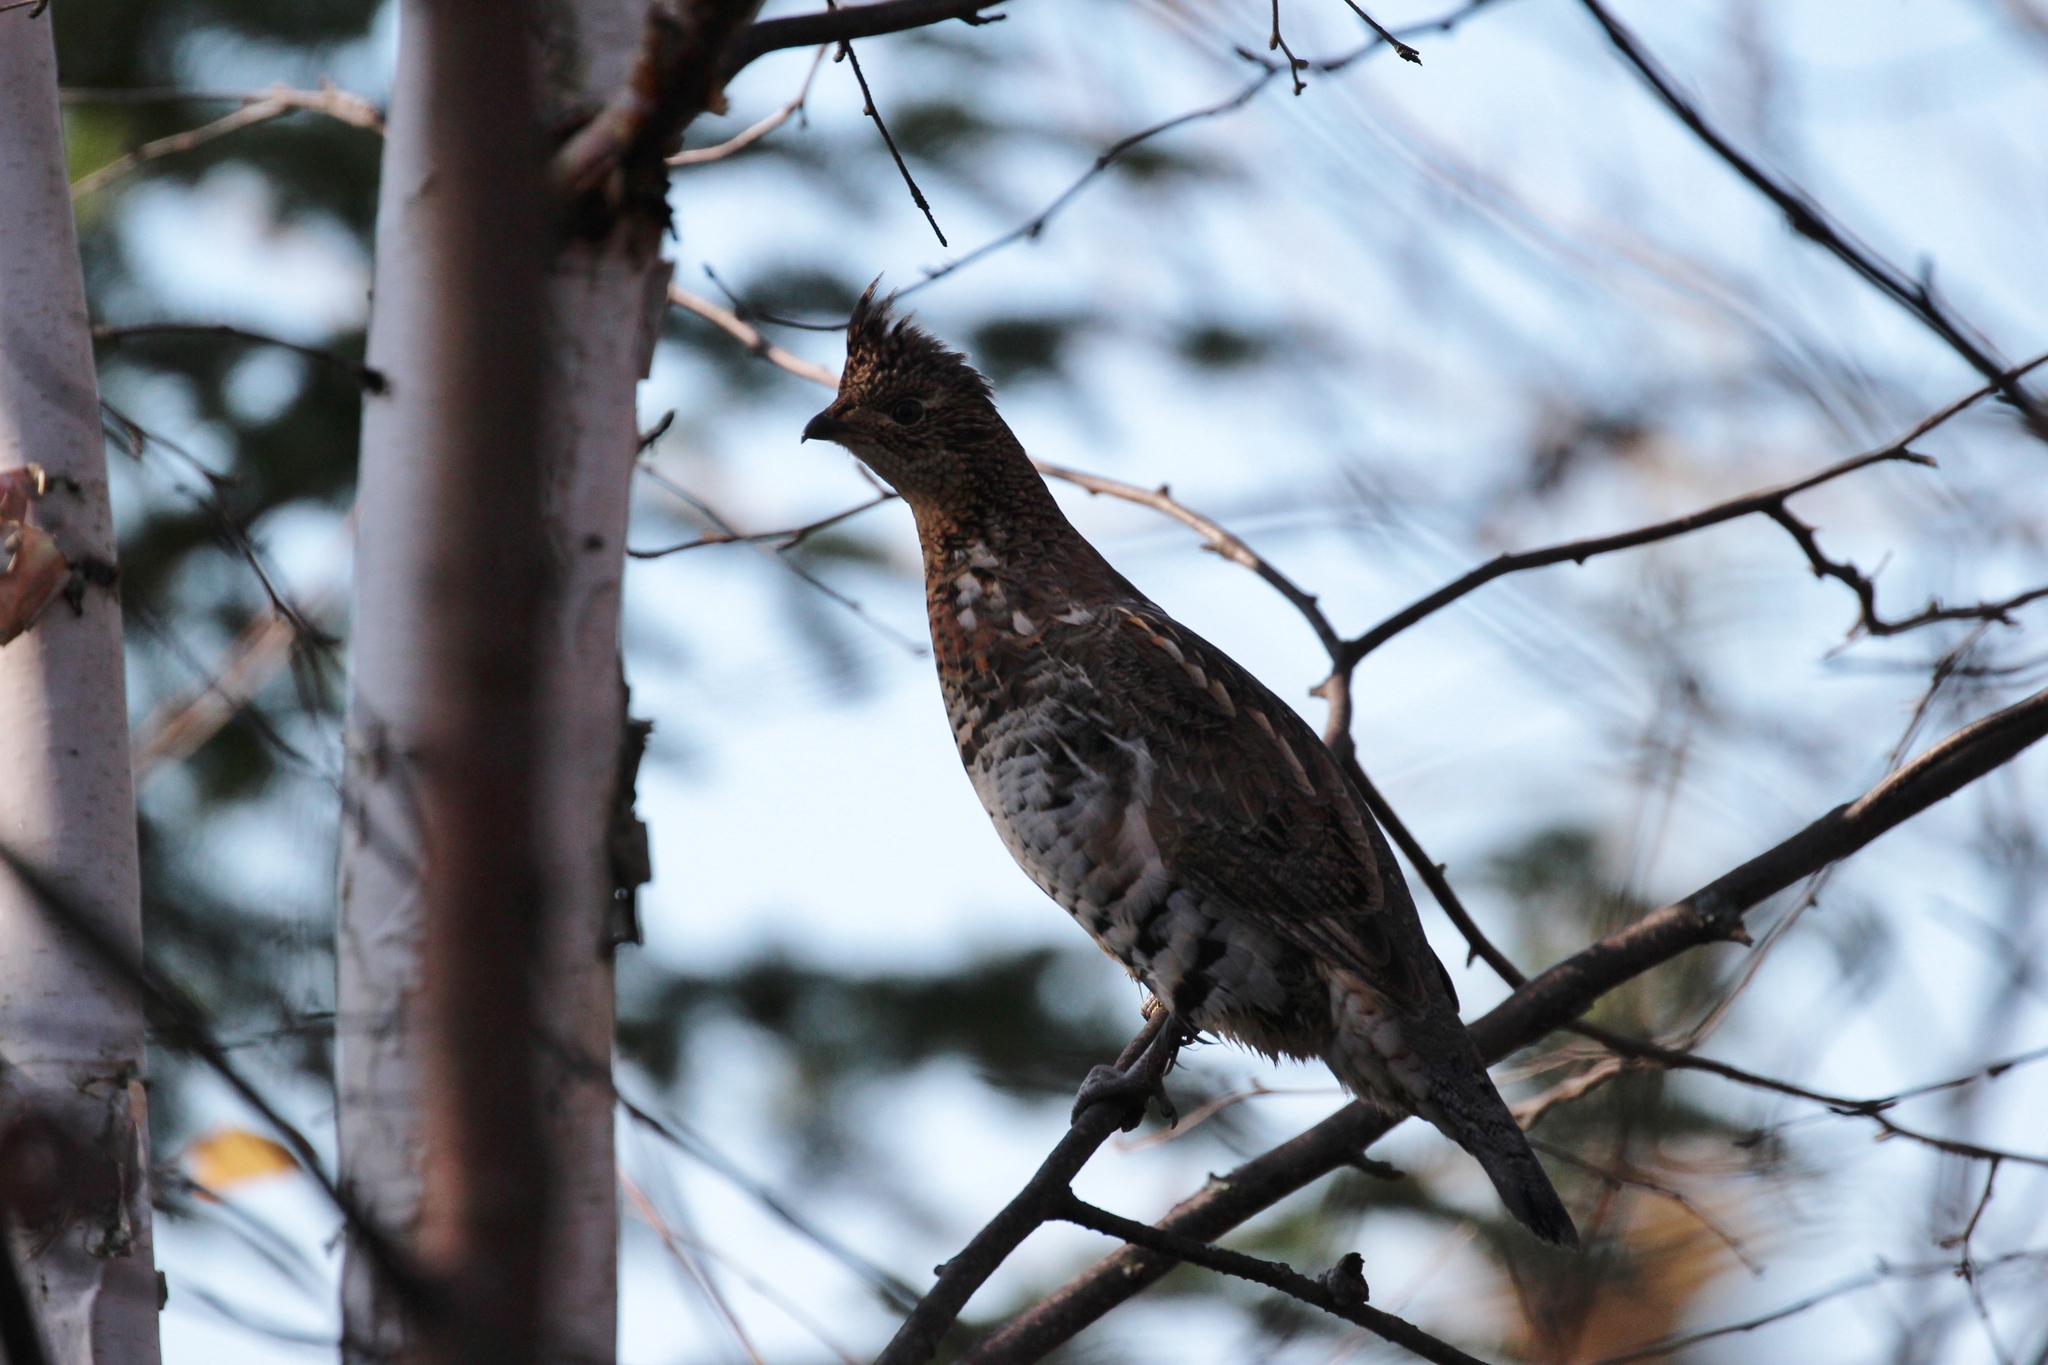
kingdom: Animalia
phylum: Chordata
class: Aves
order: Galliformes
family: Phasianidae
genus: Bonasa
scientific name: Bonasa umbellus
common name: Ruffed grouse
